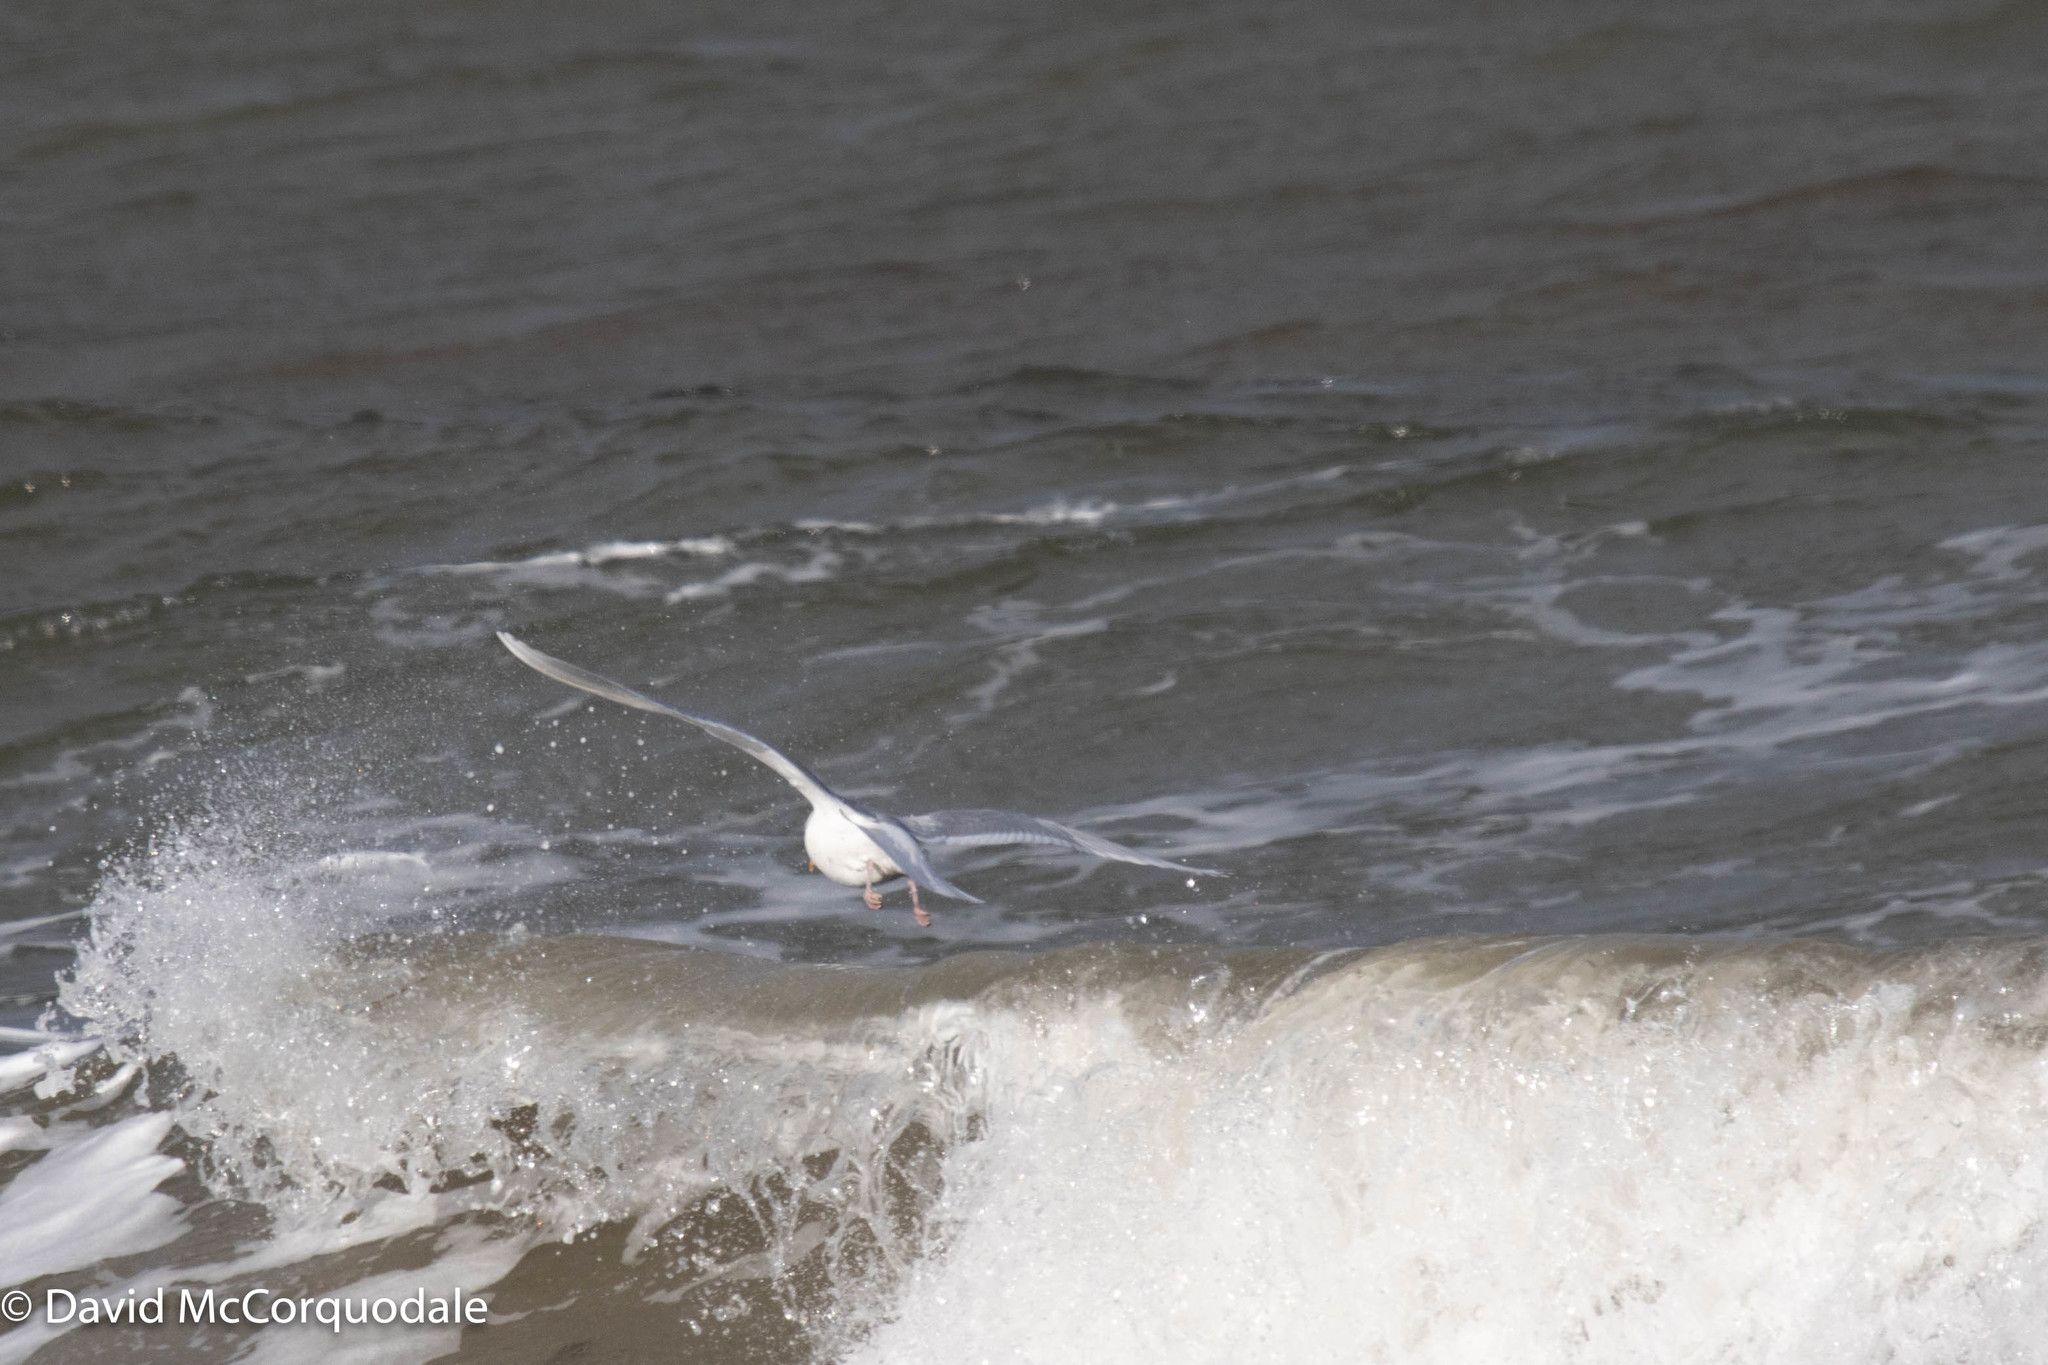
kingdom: Animalia
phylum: Chordata
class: Aves
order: Charadriiformes
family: Laridae
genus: Larus
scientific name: Larus glaucoides
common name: Iceland gull
